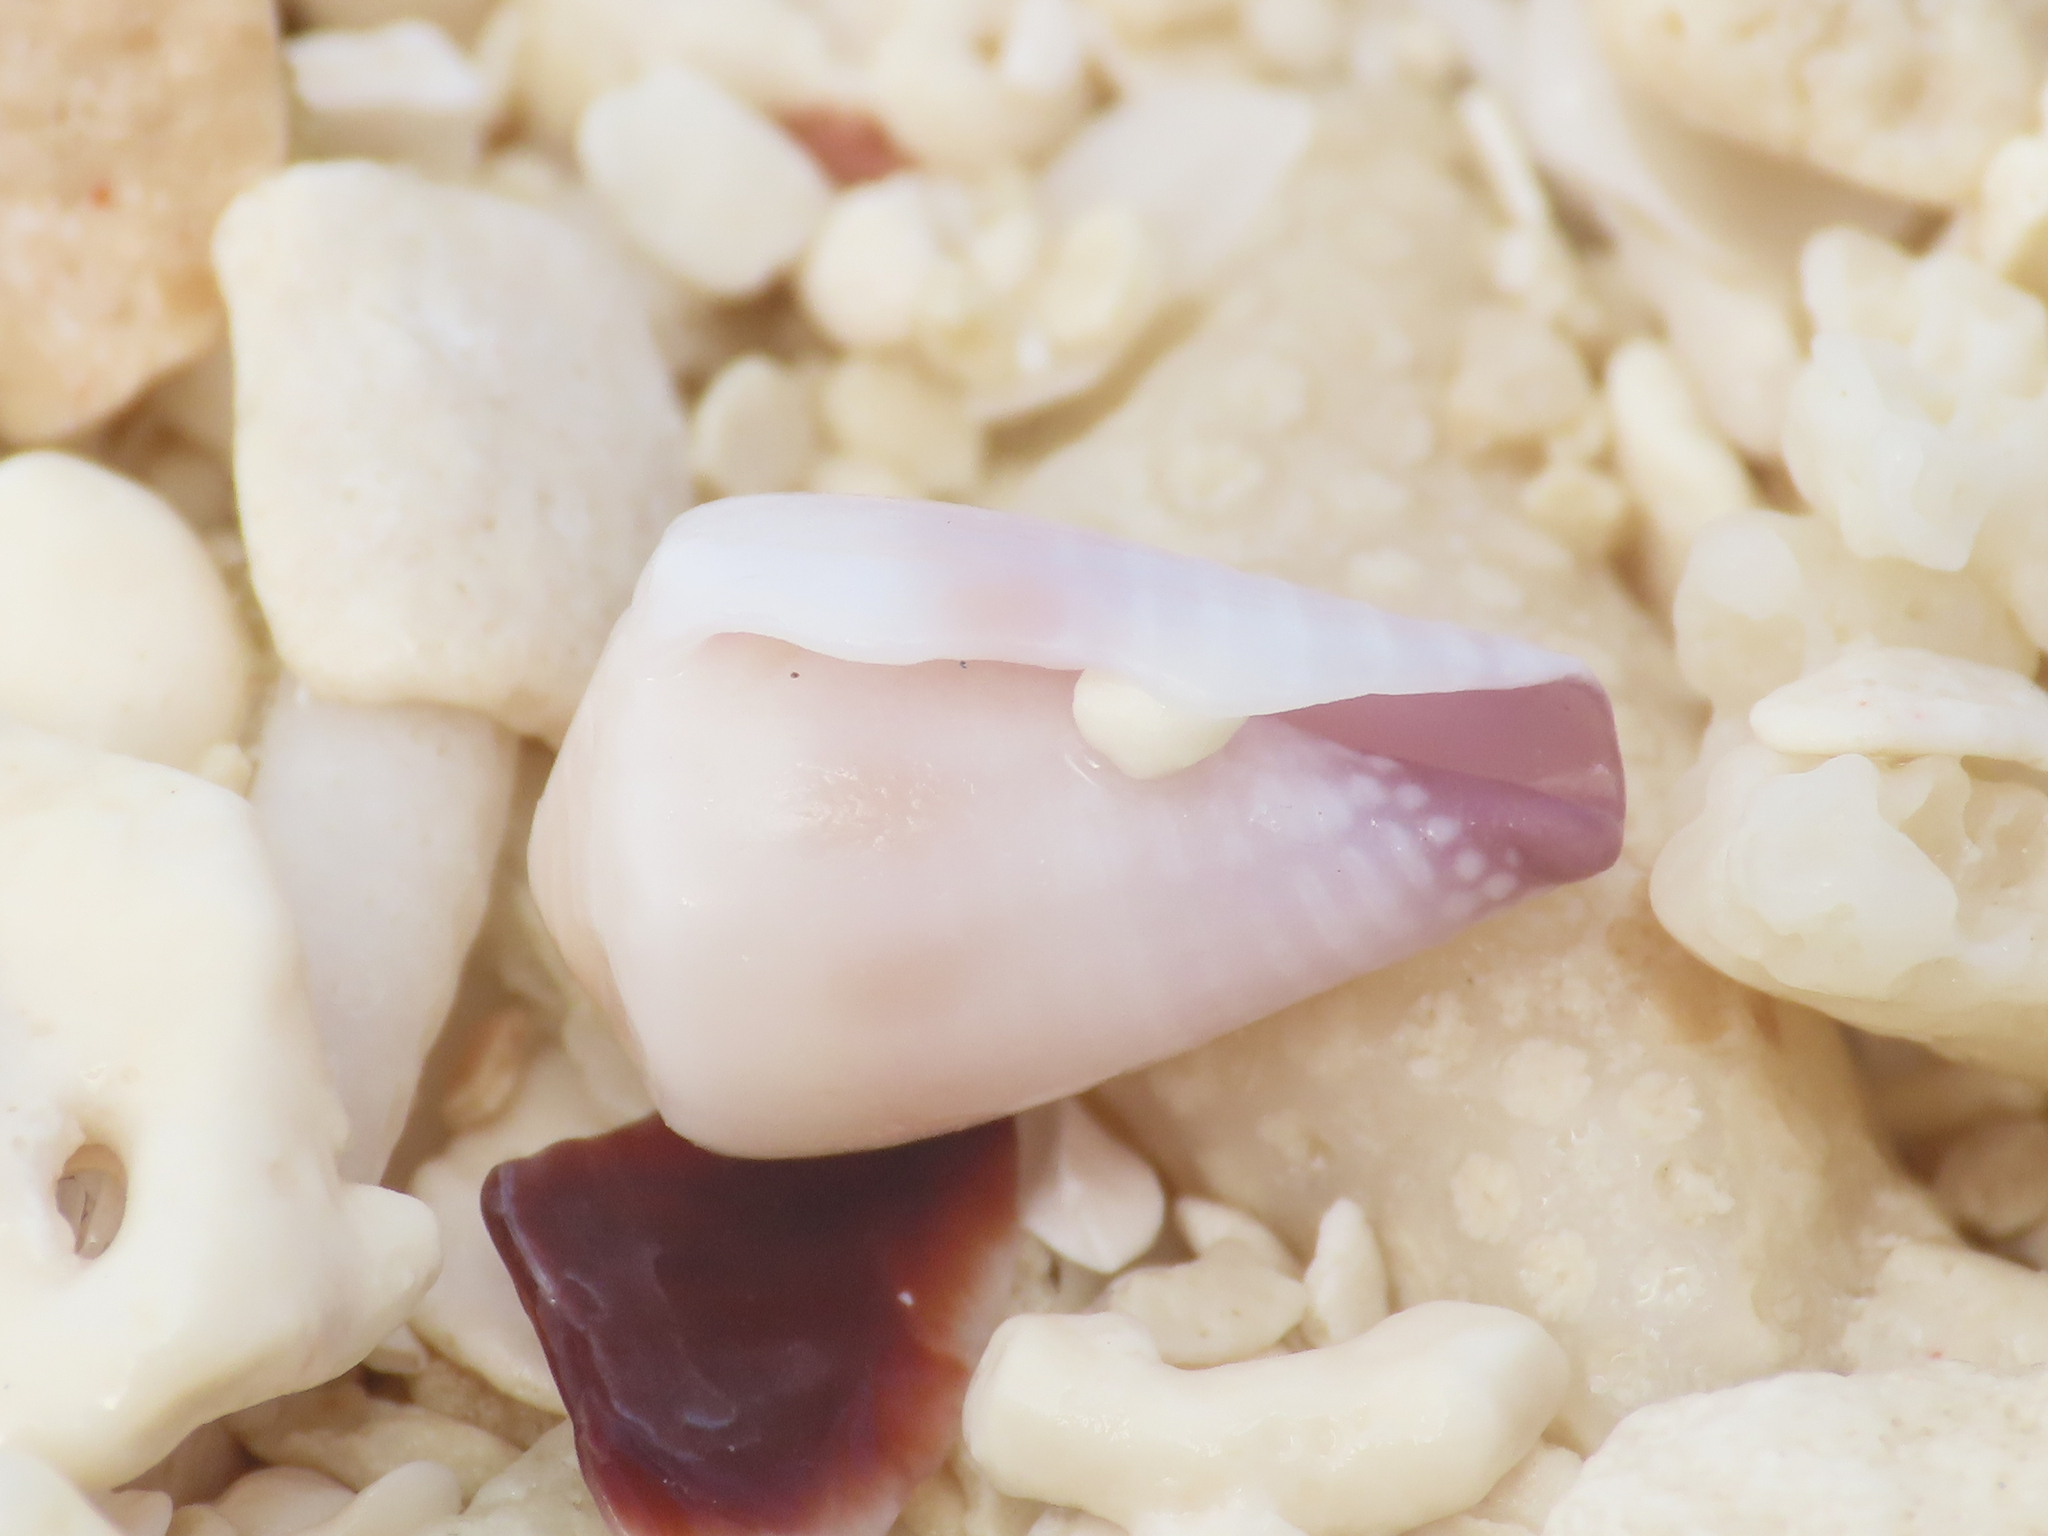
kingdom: Animalia
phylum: Mollusca
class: Gastropoda
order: Neogastropoda
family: Conidae
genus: Conus
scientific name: Conus sponsalis
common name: Sponsal cone
